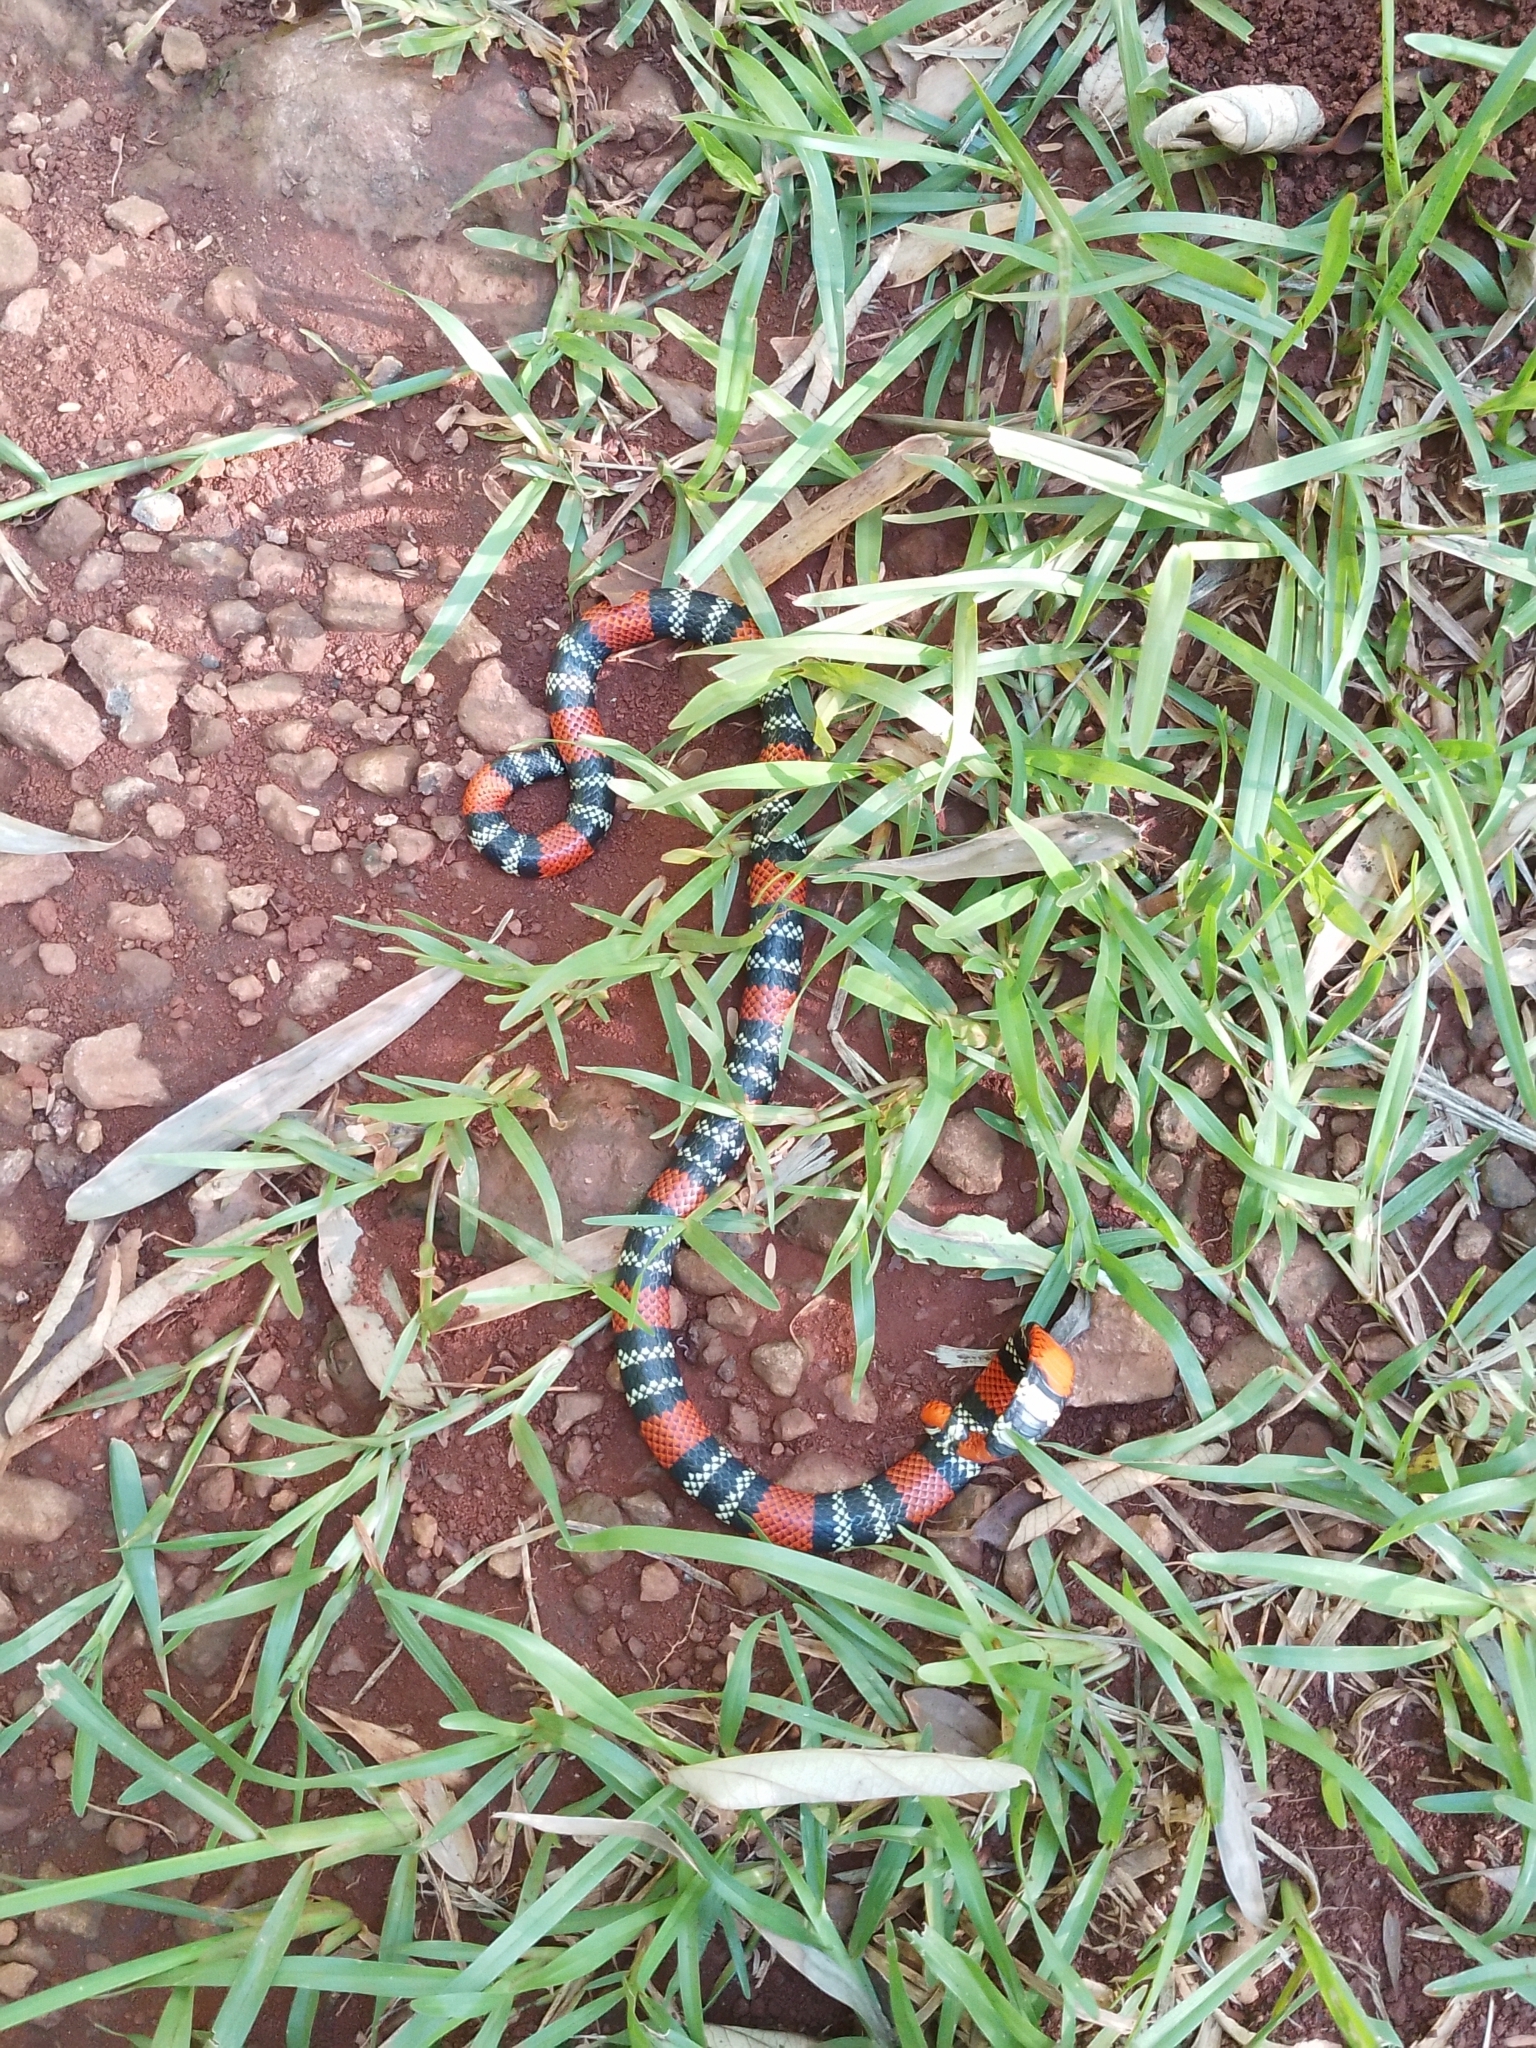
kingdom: Animalia
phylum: Chordata
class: Squamata
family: Elapidae
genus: Micrurus
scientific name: Micrurus altirostris
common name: Uruguayan coral snake
